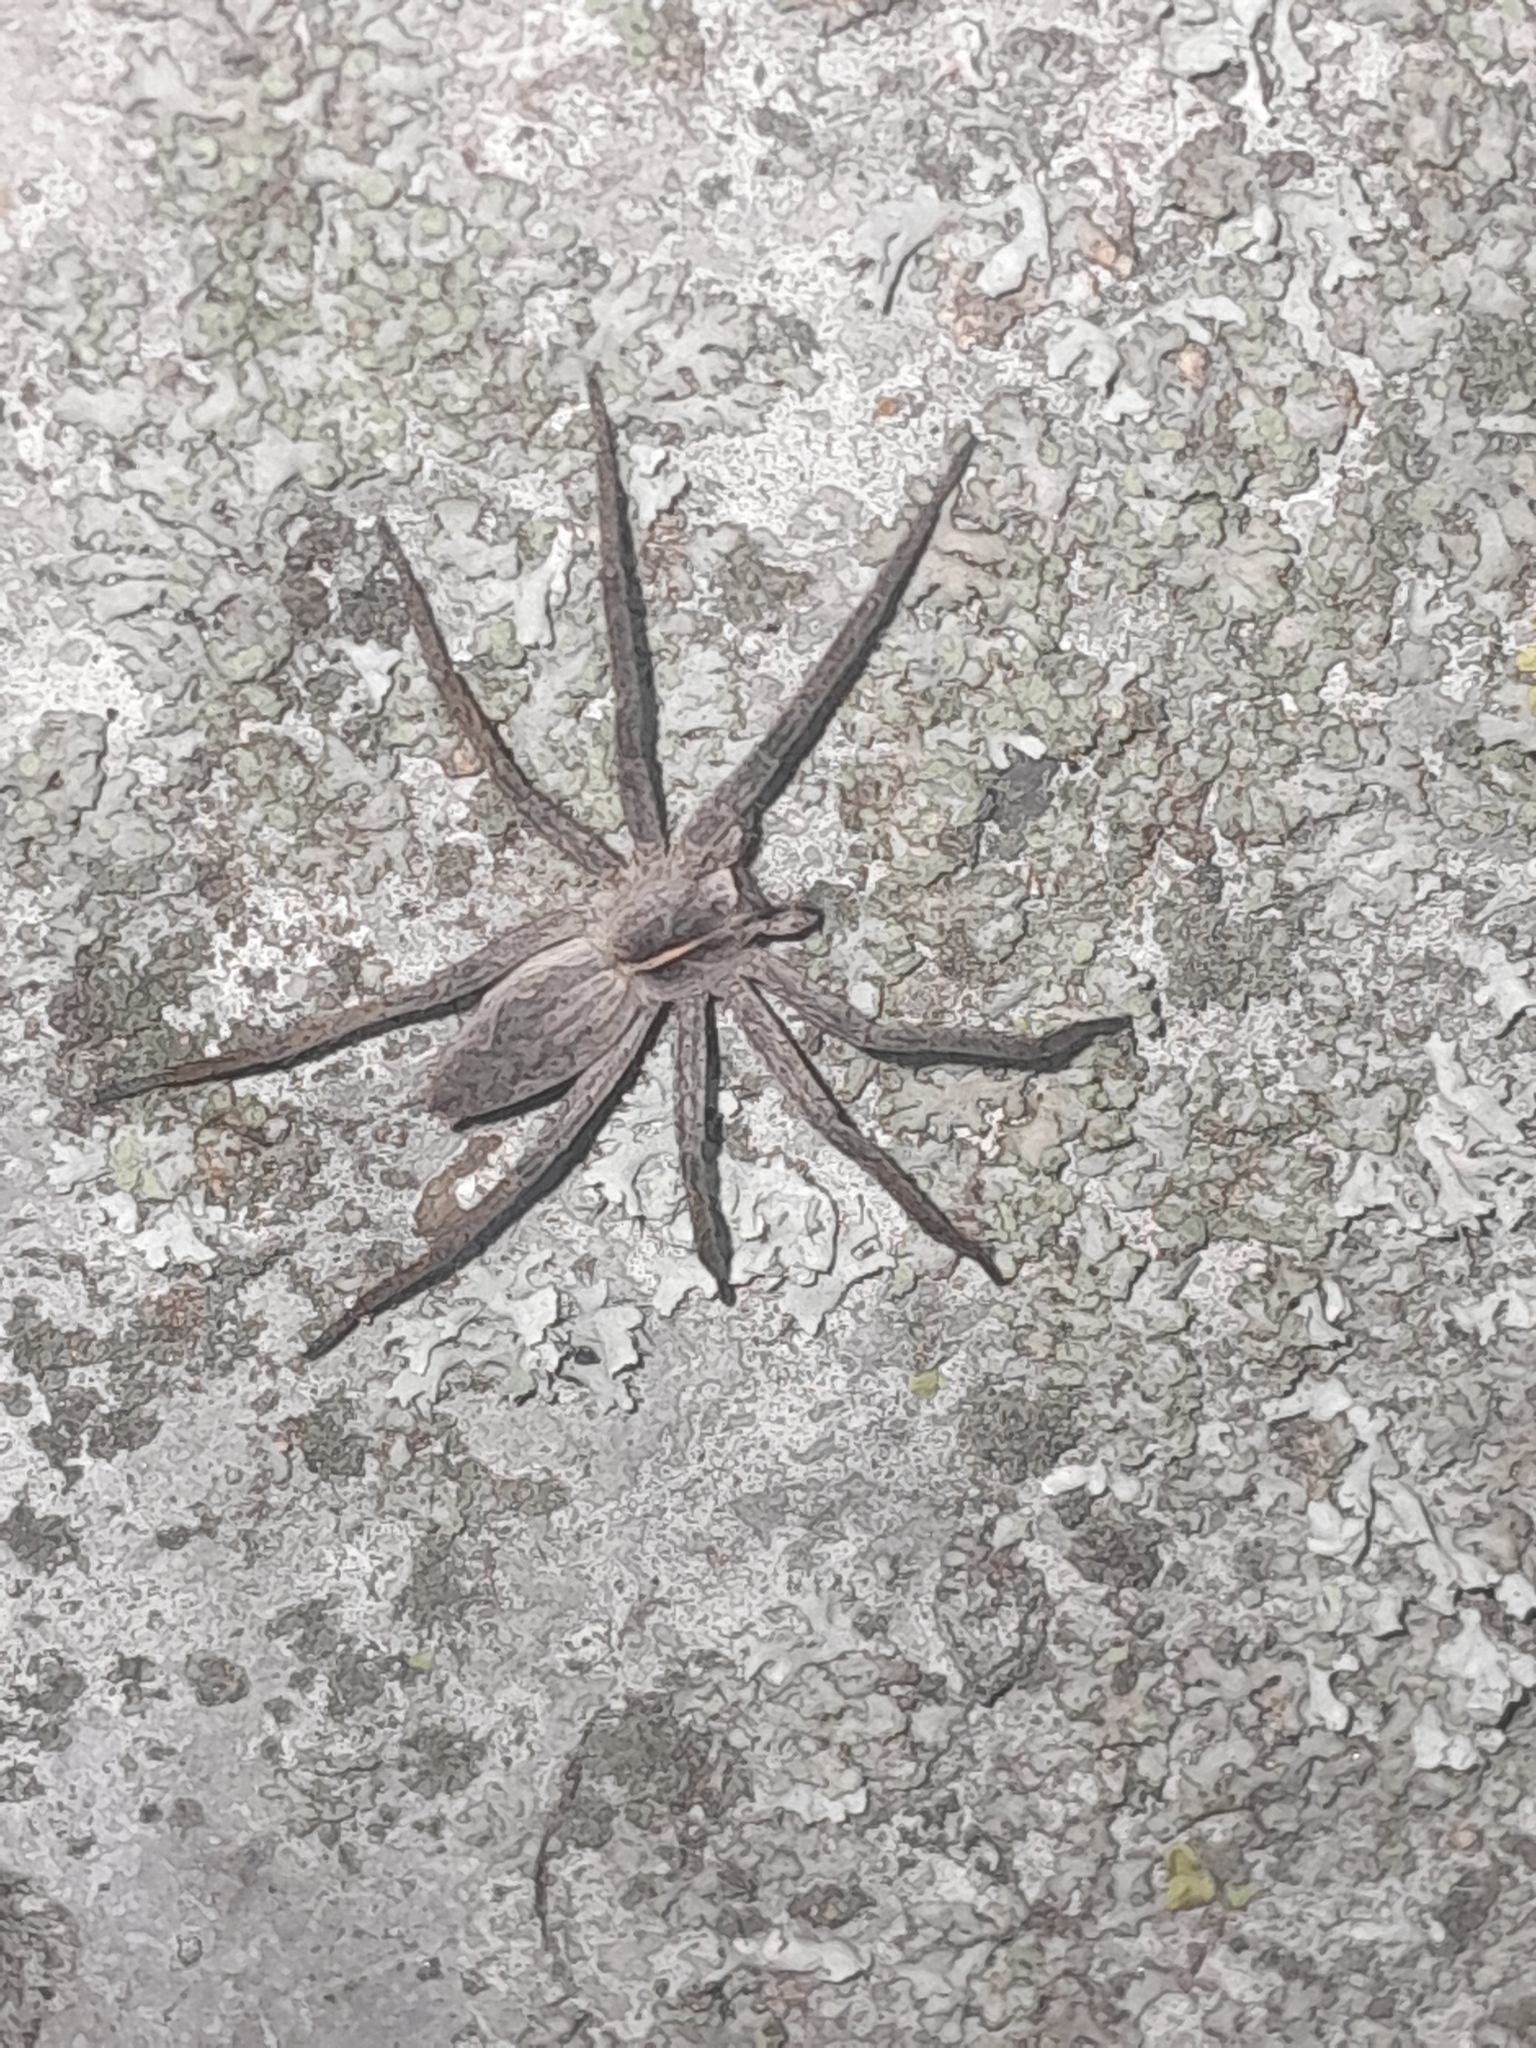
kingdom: Animalia
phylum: Arthropoda
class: Arachnida
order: Araneae
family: Pisauridae
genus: Pisaura
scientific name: Pisaura mirabilis
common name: Tent spider
